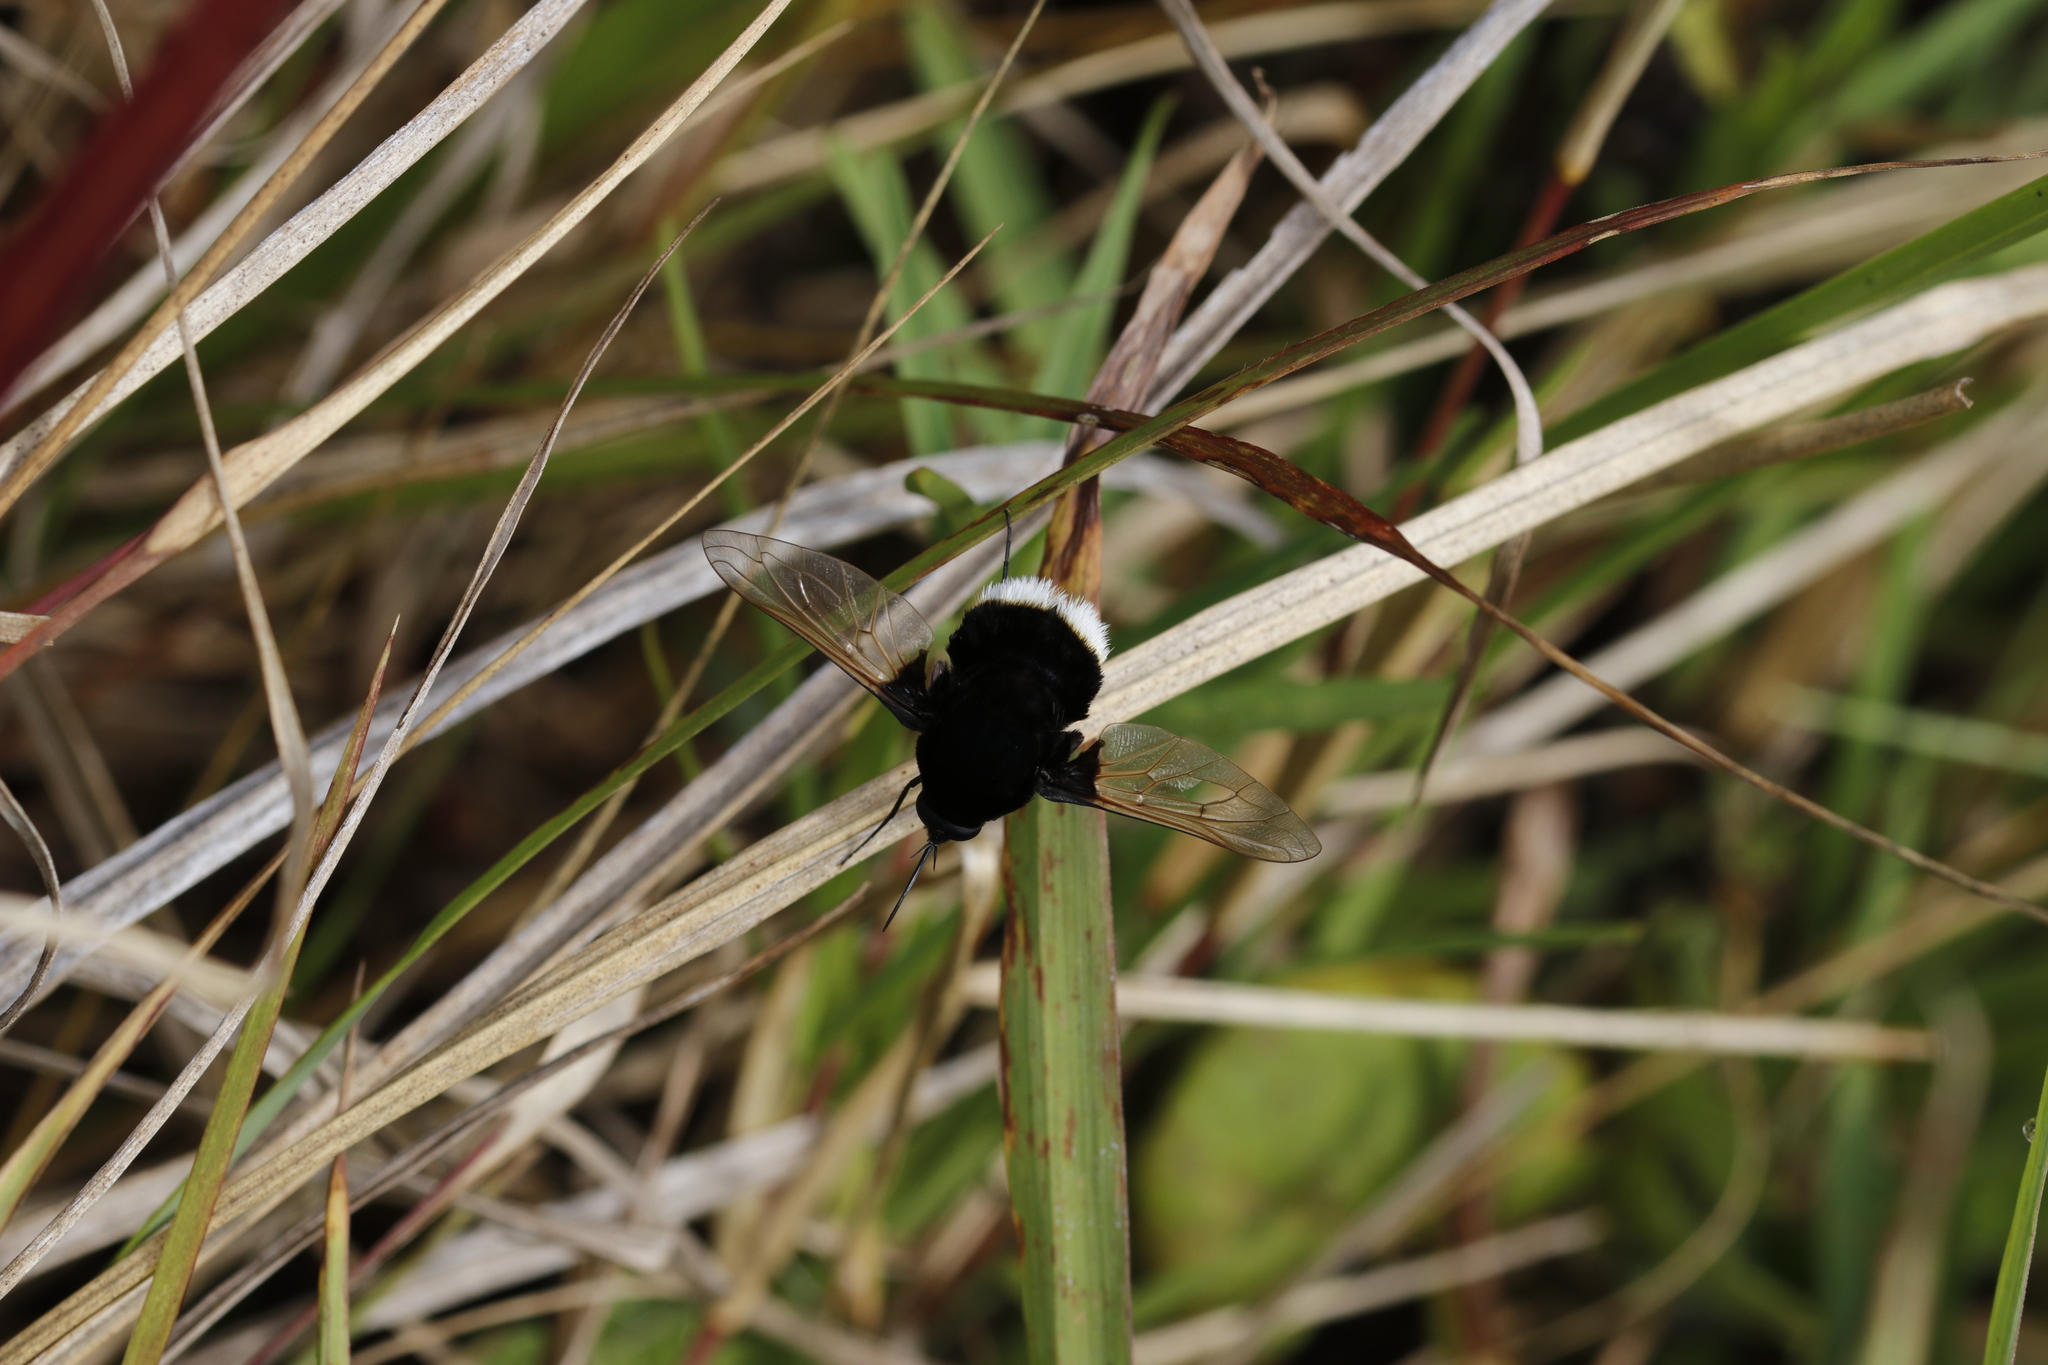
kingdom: Animalia
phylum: Arthropoda
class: Insecta
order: Diptera
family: Bombyliidae
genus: Bombomyia
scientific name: Bombomyia discoidea
